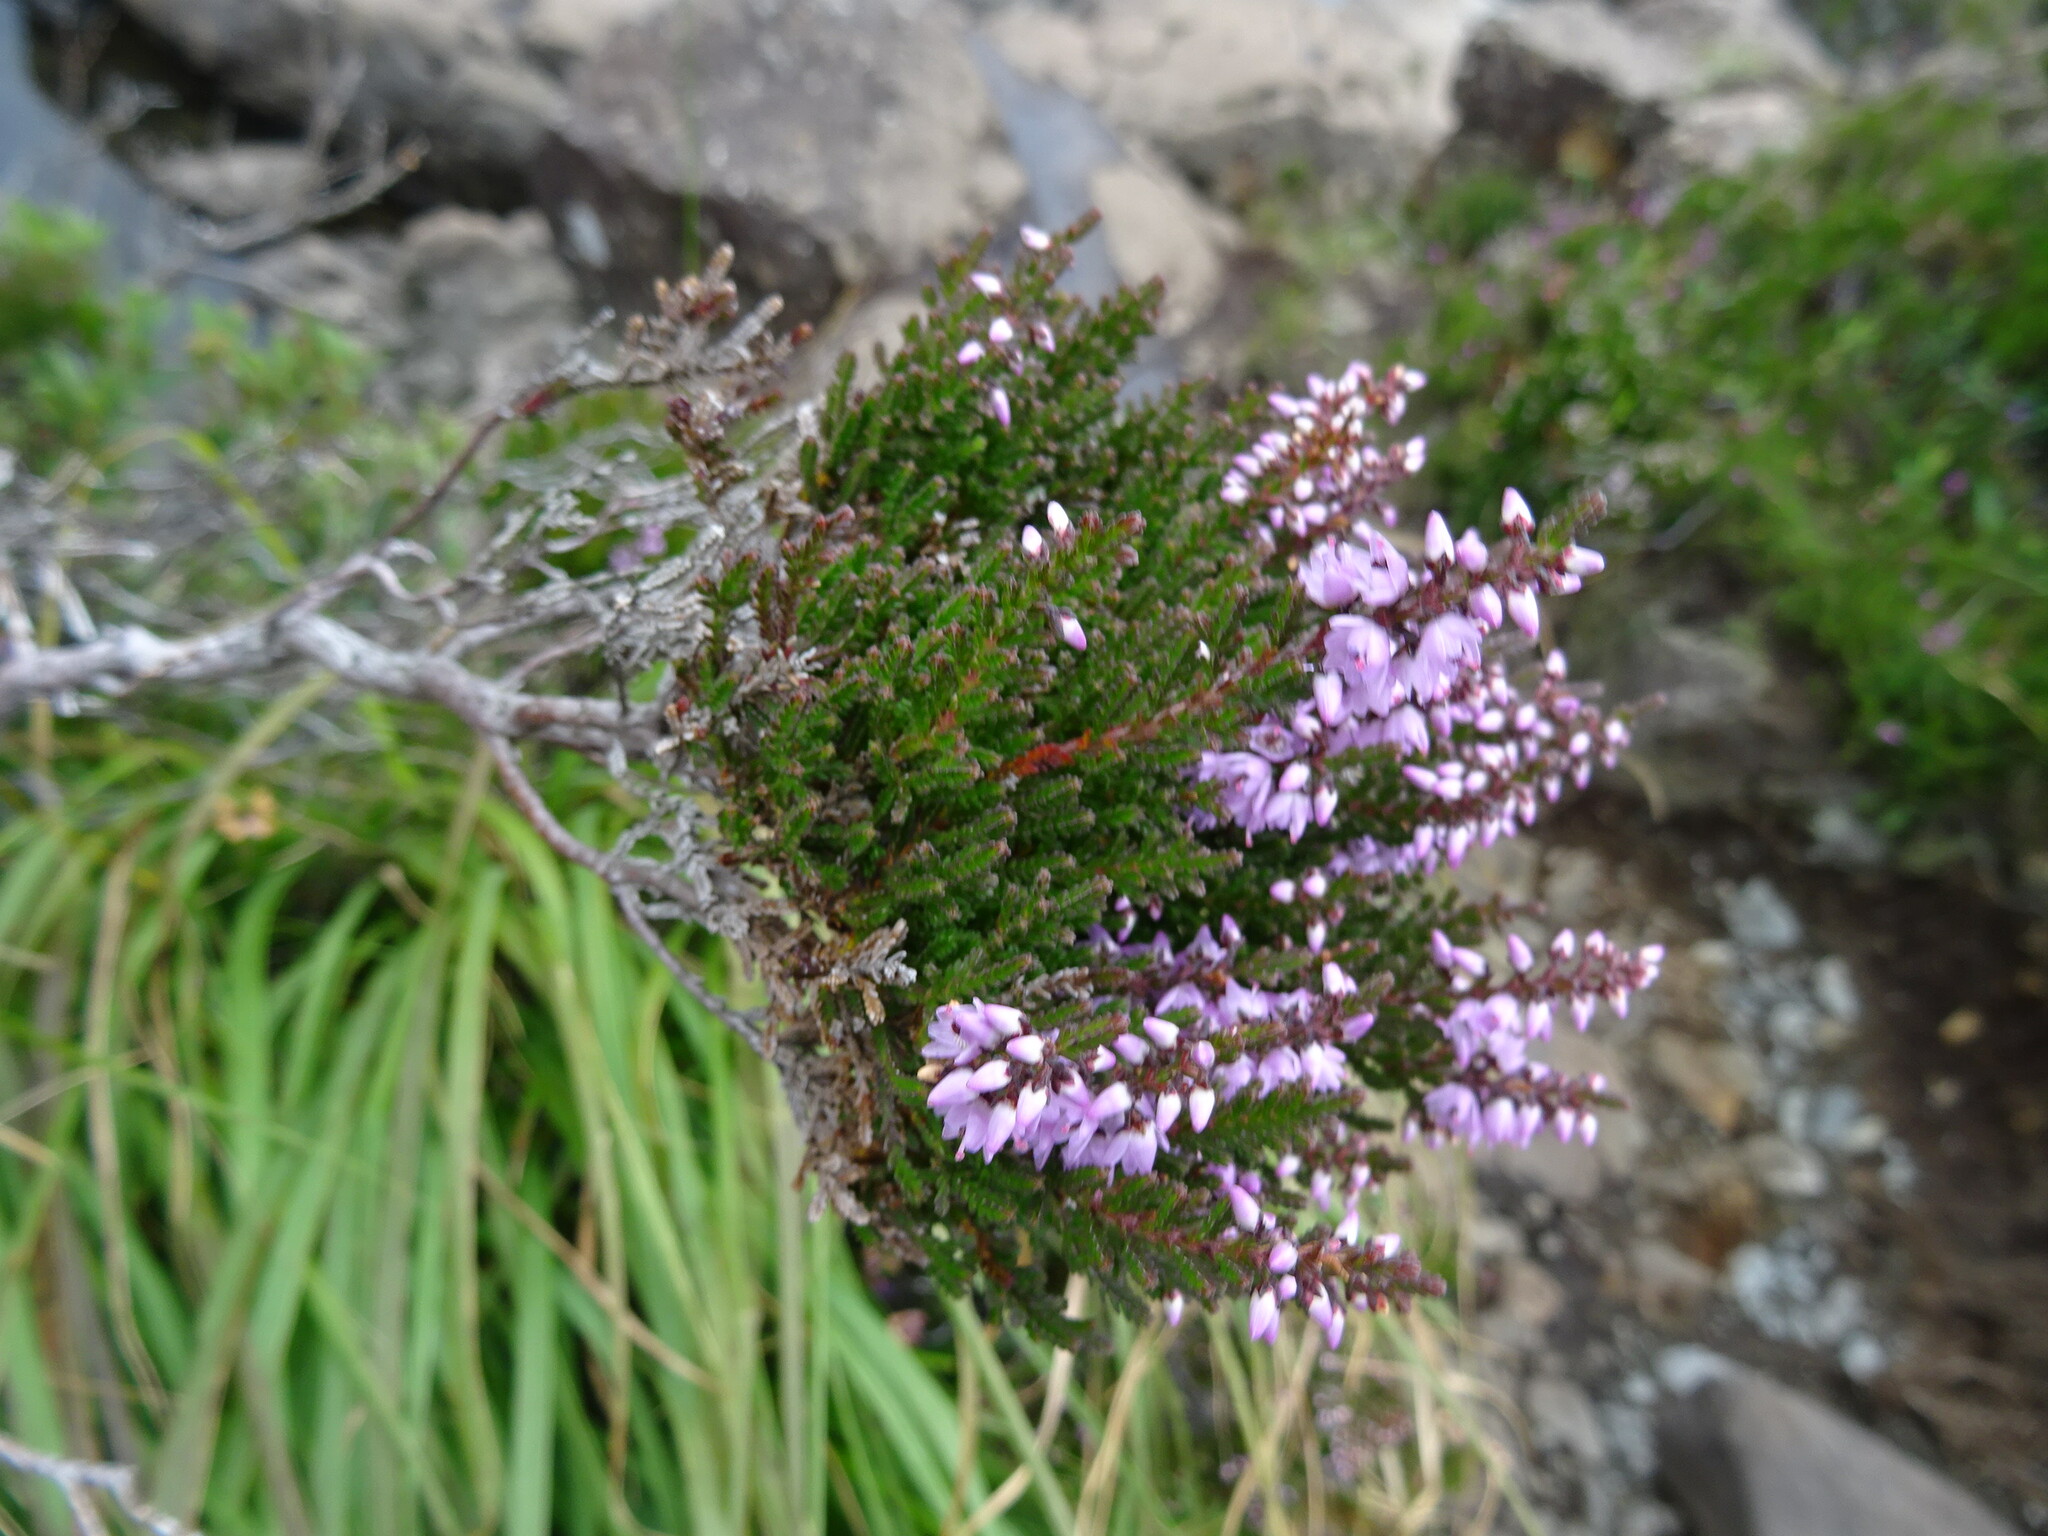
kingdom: Plantae
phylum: Tracheophyta
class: Magnoliopsida
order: Ericales
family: Ericaceae
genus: Calluna
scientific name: Calluna vulgaris
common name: Heather
